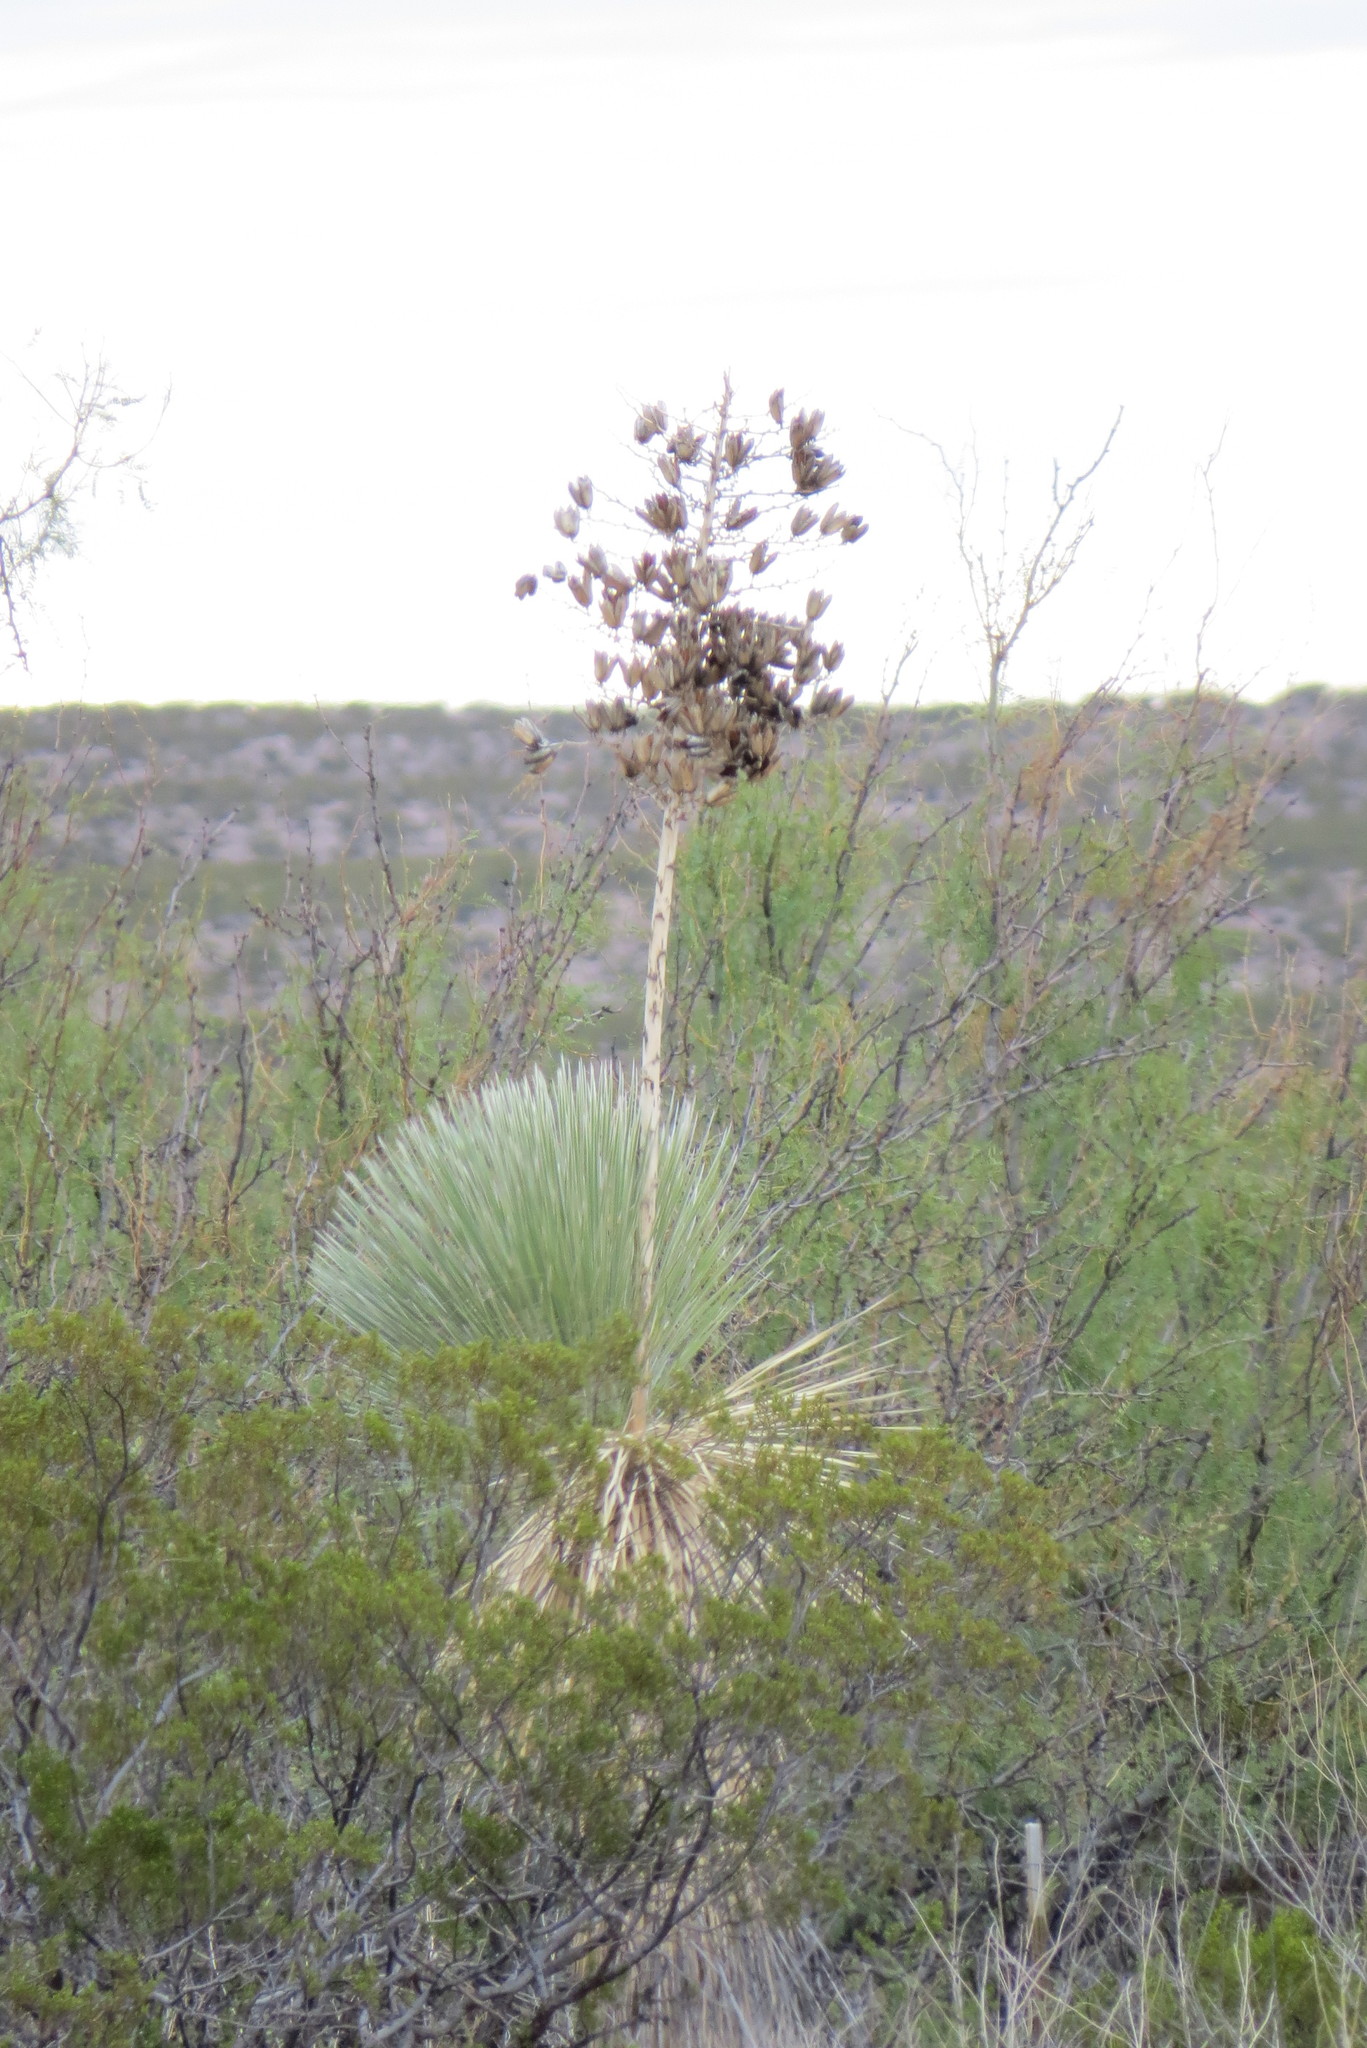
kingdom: Plantae
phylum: Tracheophyta
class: Liliopsida
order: Asparagales
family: Asparagaceae
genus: Yucca
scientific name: Yucca elata
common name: Palmella
